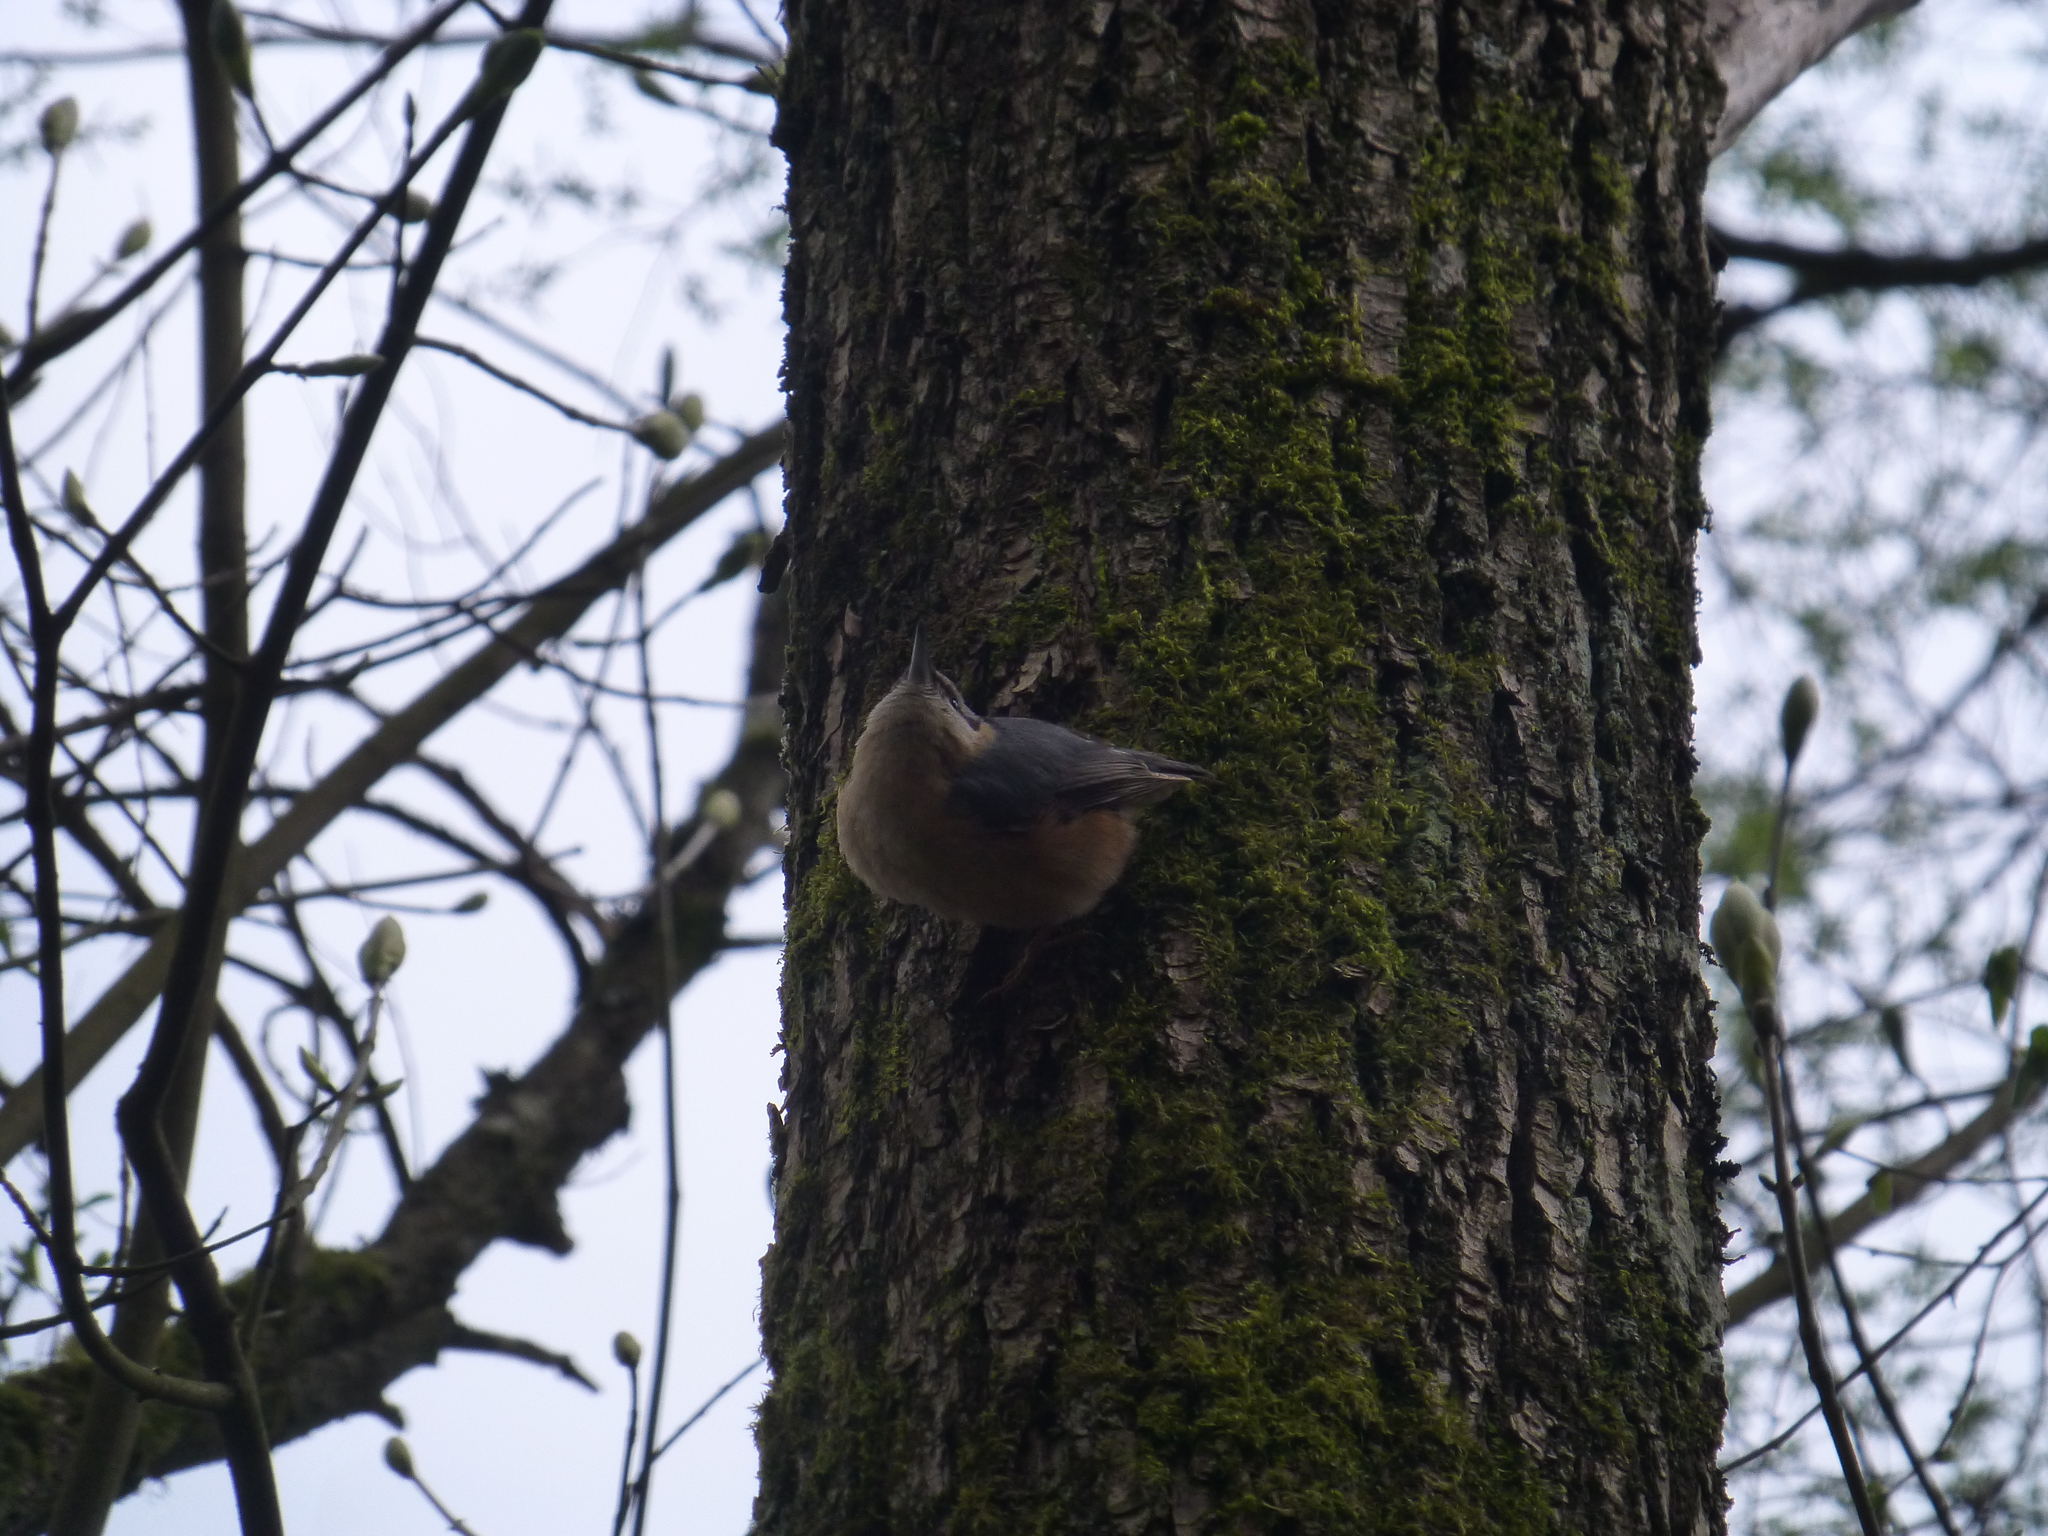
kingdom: Animalia
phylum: Chordata
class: Aves
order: Passeriformes
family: Sittidae
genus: Sitta
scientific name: Sitta europaea
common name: Eurasian nuthatch
